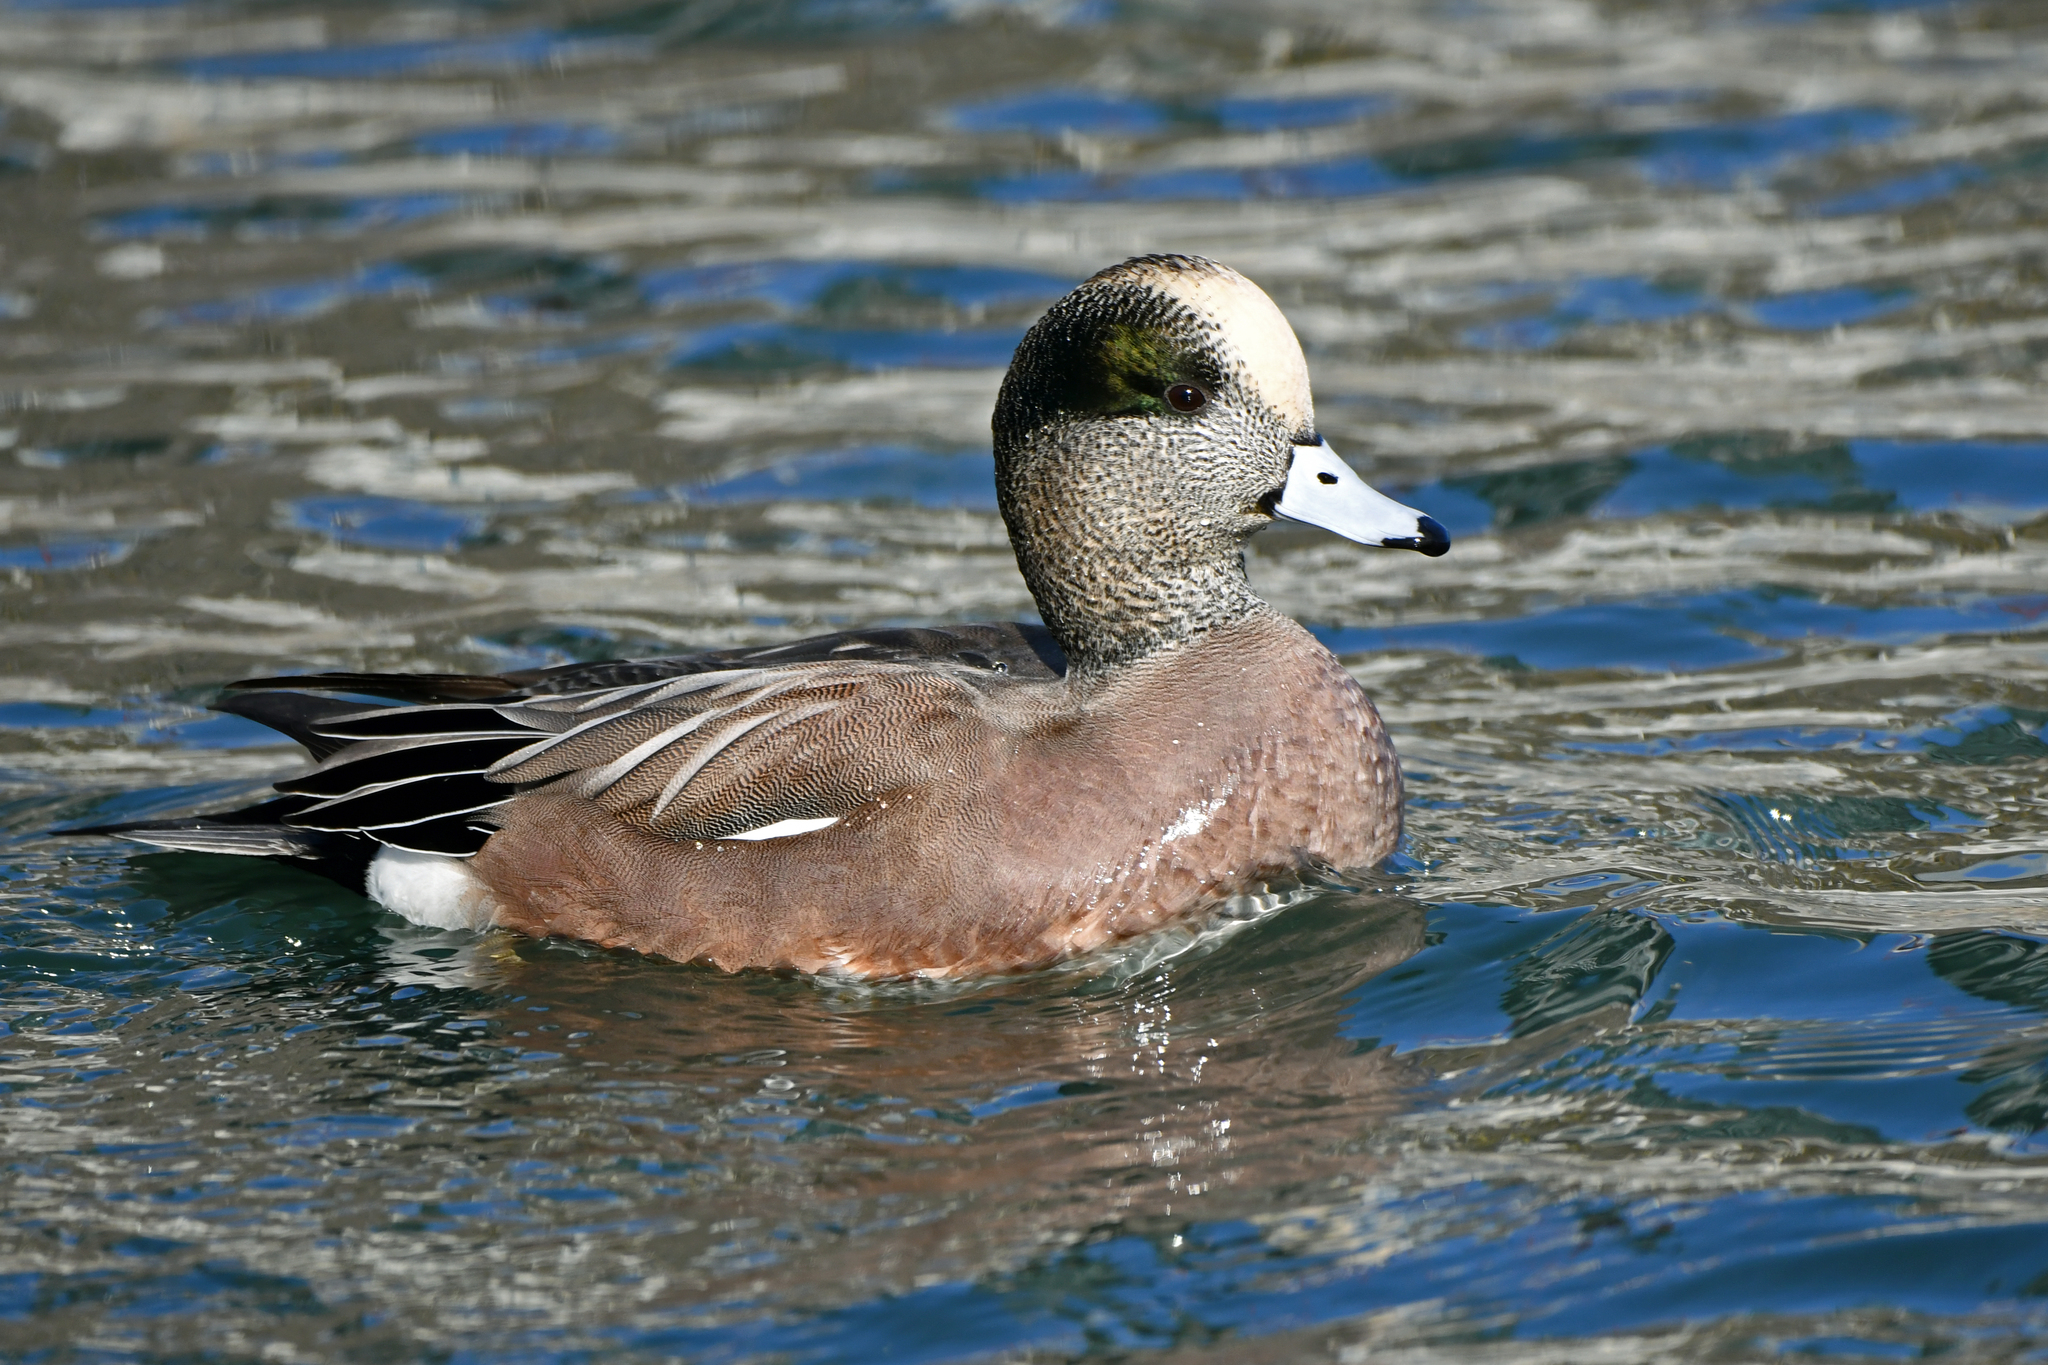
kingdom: Animalia
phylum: Chordata
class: Aves
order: Anseriformes
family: Anatidae
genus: Mareca
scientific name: Mareca americana
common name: American wigeon
